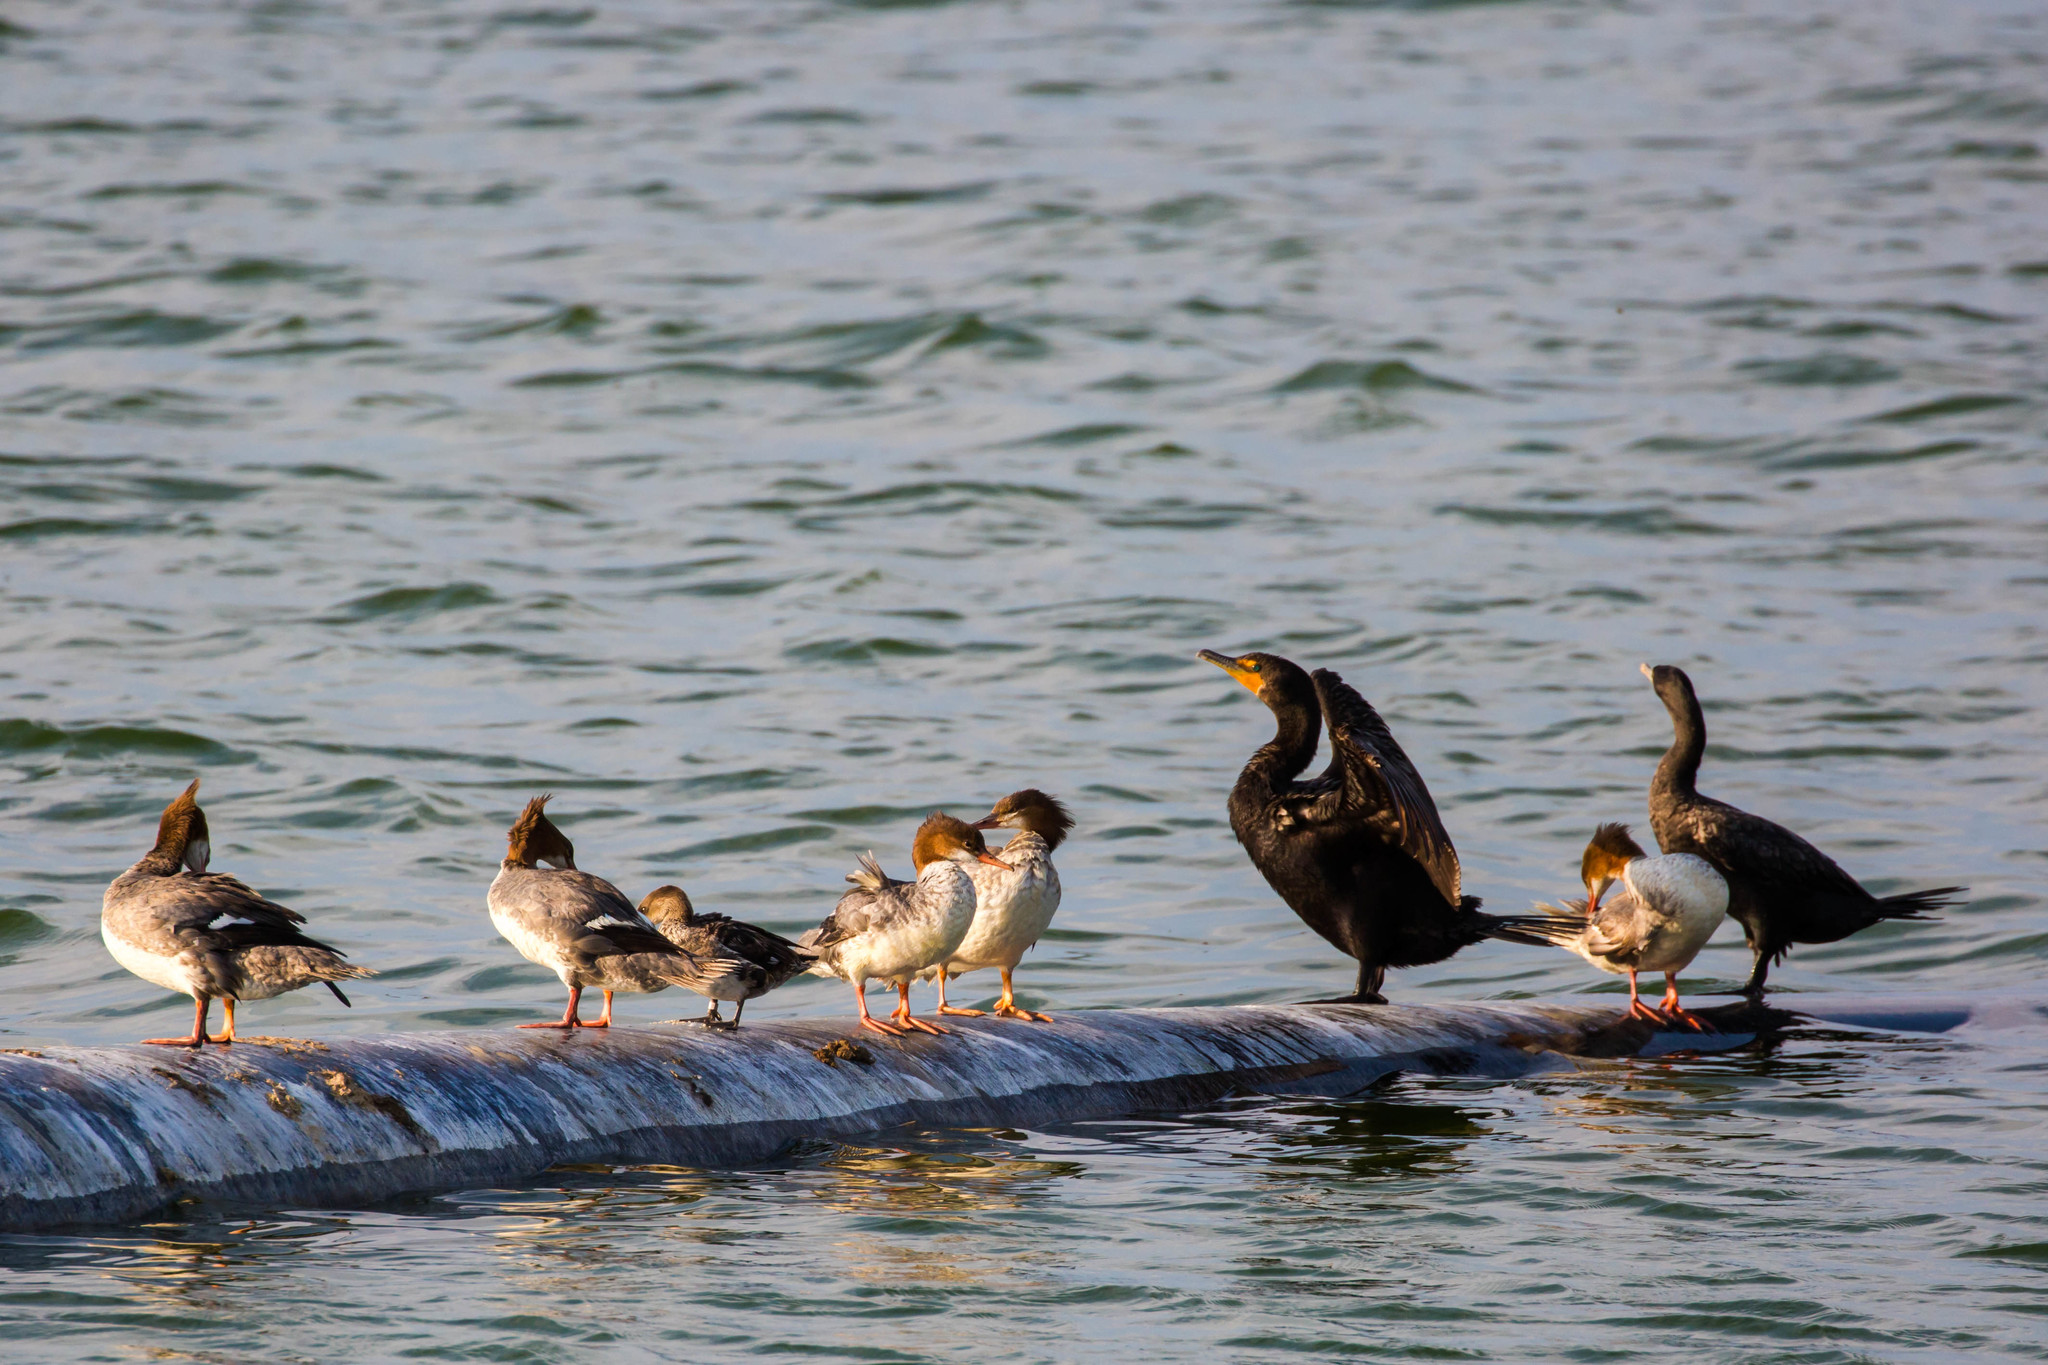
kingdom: Animalia
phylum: Chordata
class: Aves
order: Anseriformes
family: Anatidae
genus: Mergus
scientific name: Mergus merganser
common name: Common merganser
